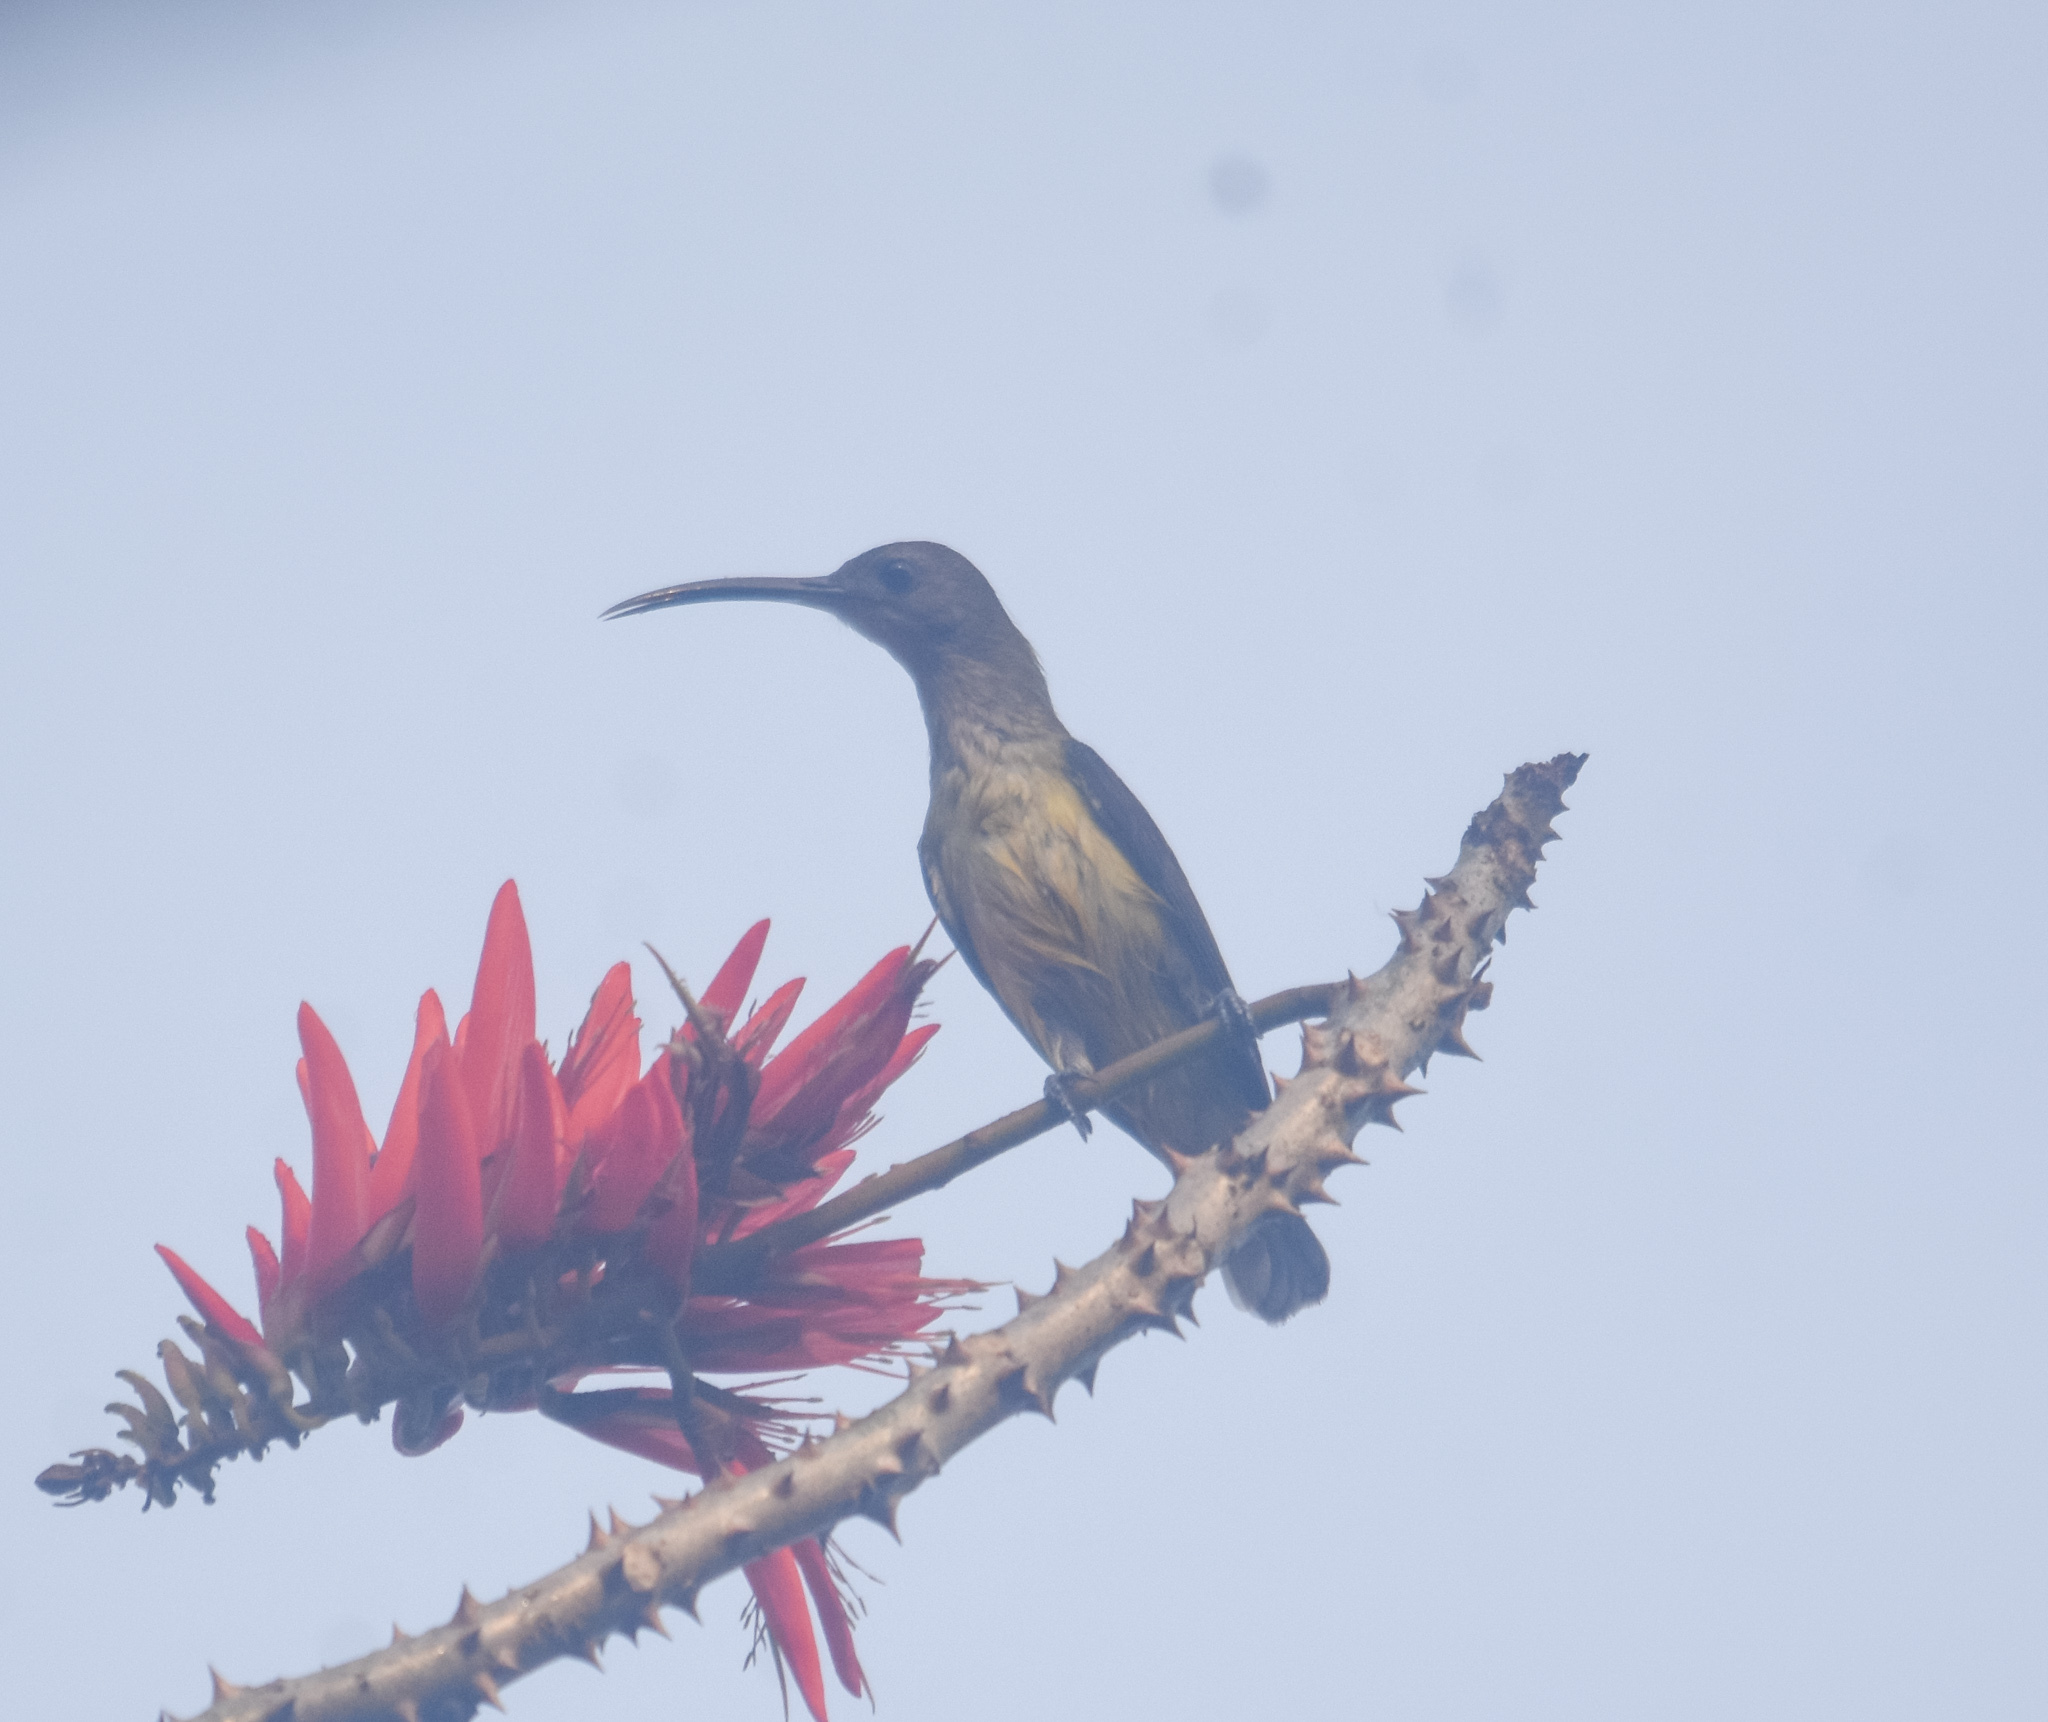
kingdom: Animalia
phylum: Chordata
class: Aves
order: Passeriformes
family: Nectariniidae
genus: Arachnothera
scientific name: Arachnothera longirostra
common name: Little spiderhunter
